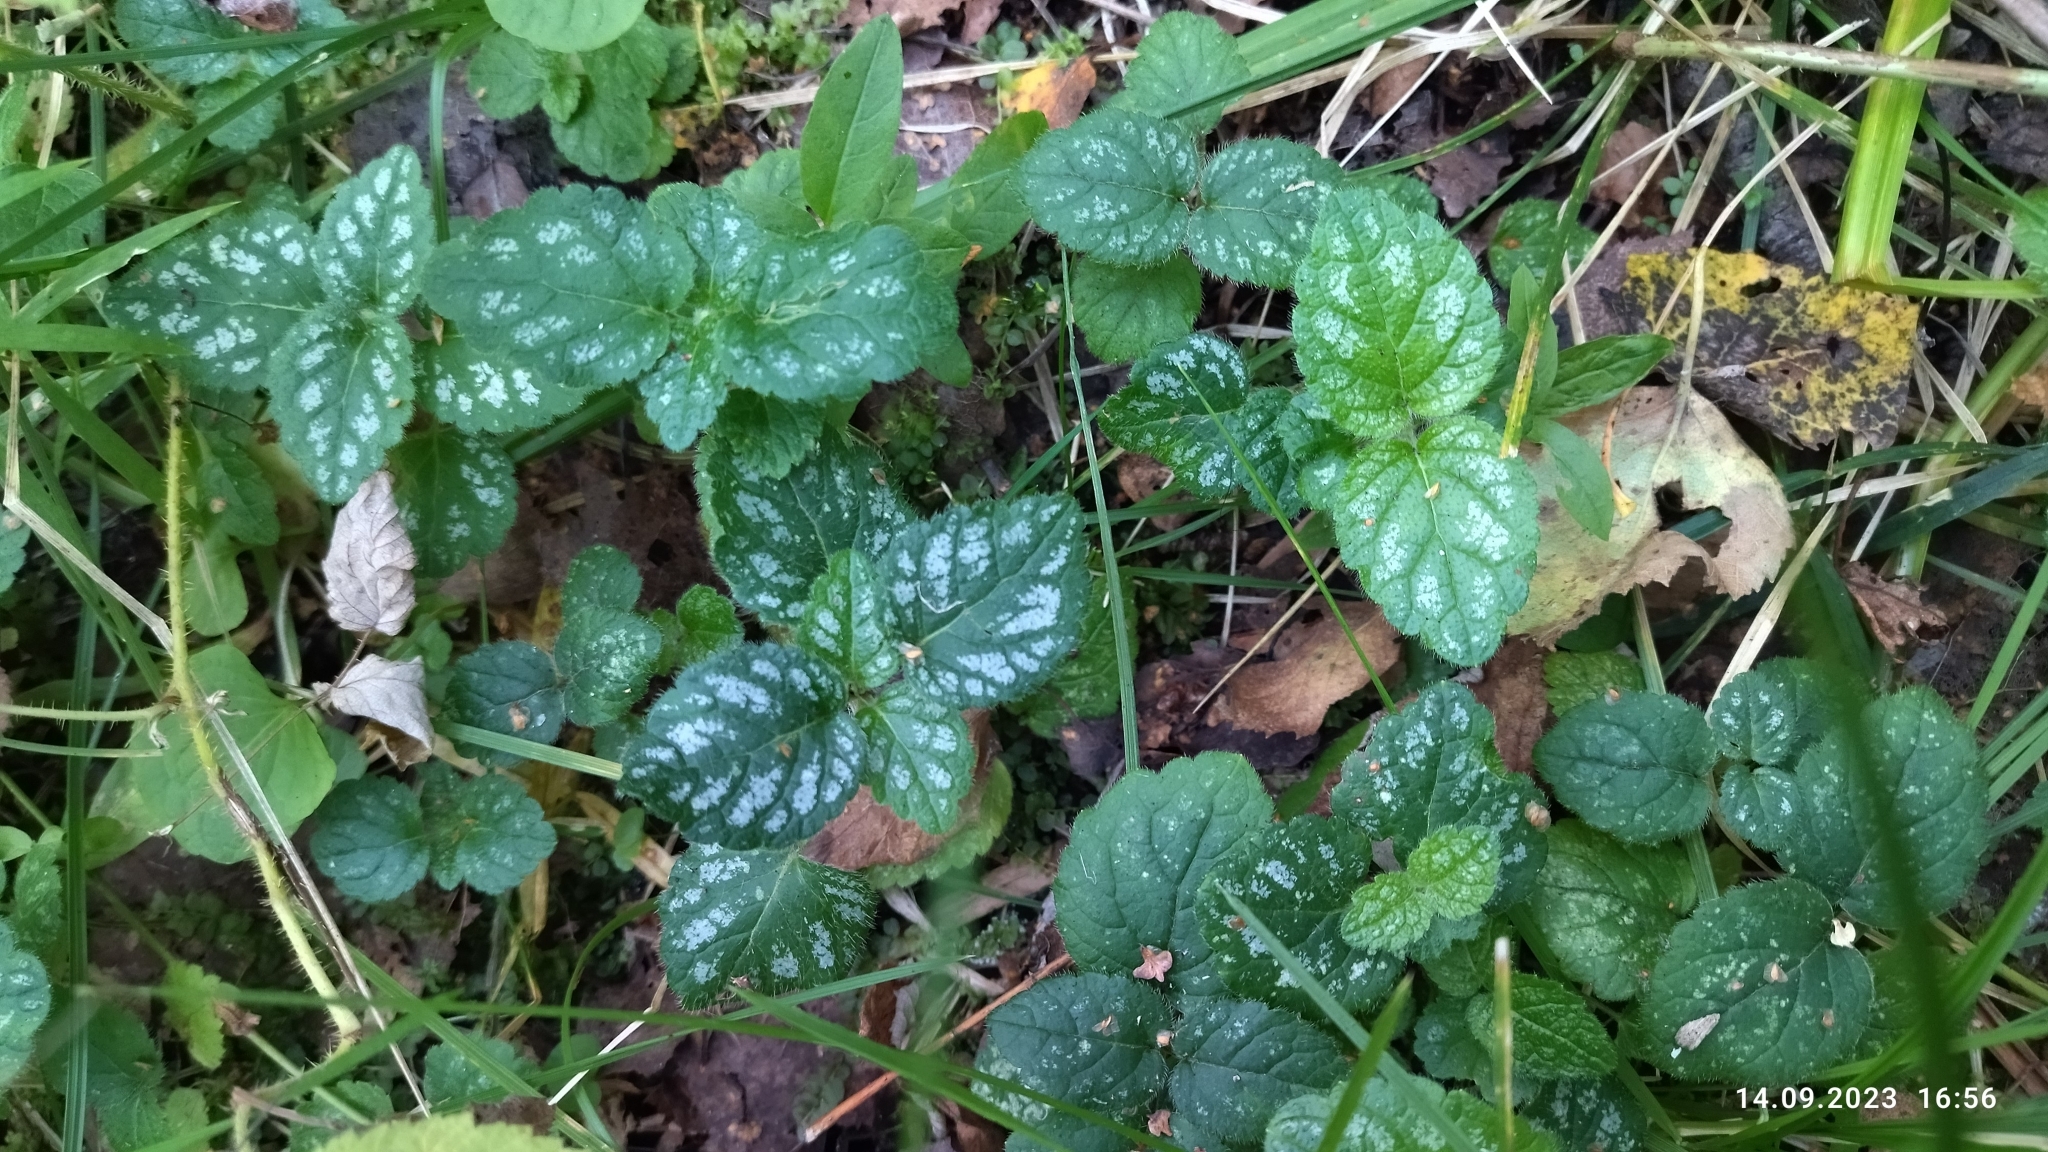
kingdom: Plantae
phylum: Tracheophyta
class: Magnoliopsida
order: Lamiales
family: Lamiaceae
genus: Lamium
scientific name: Lamium galeobdolon
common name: Yellow archangel
